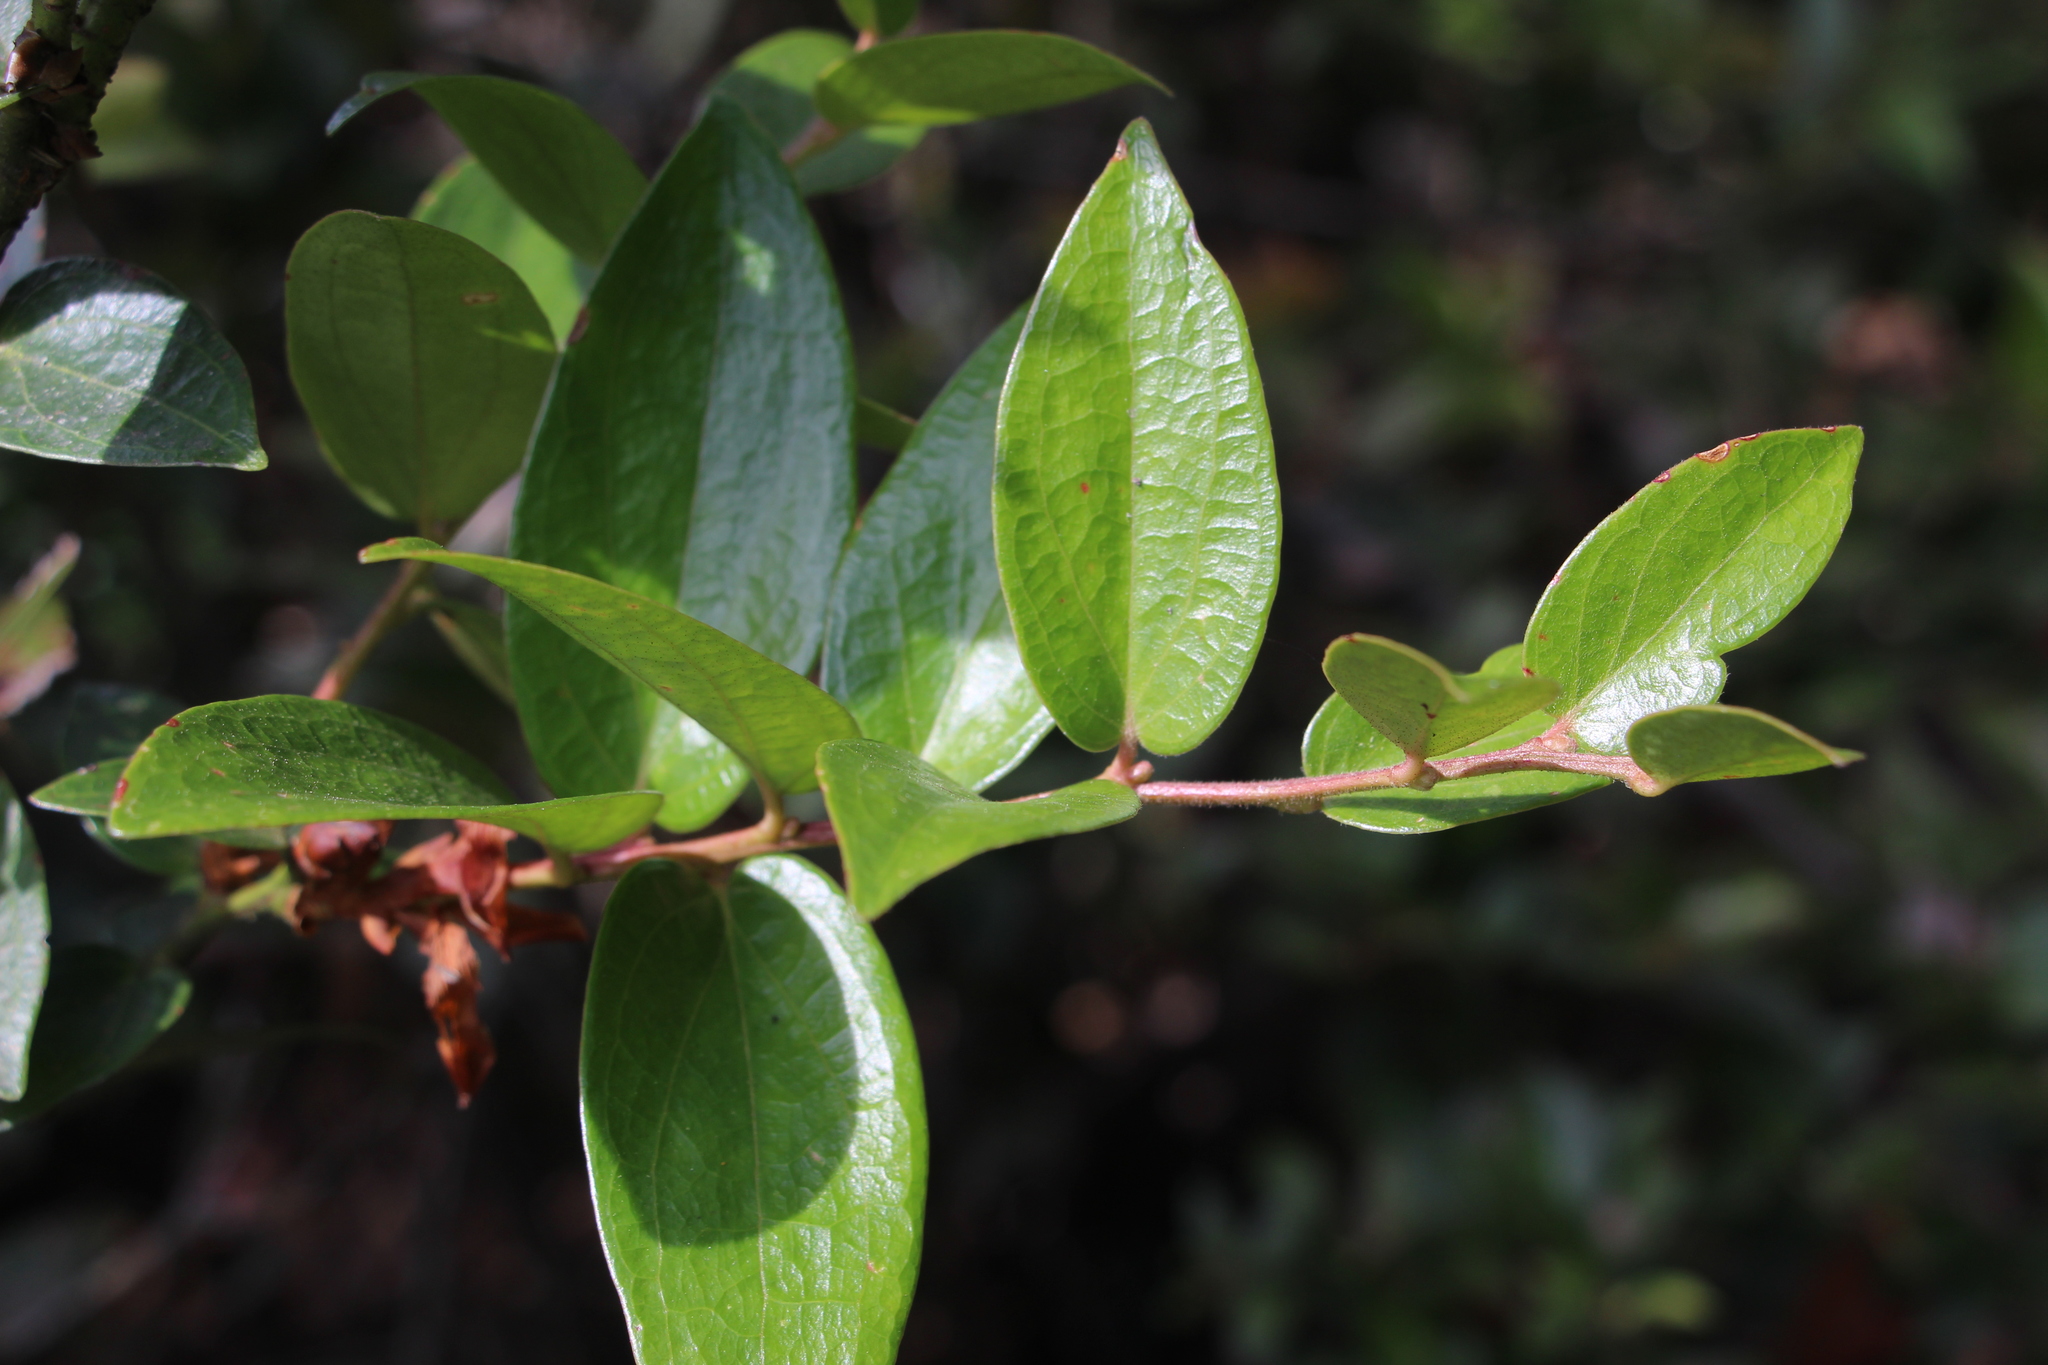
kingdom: Plantae
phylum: Tracheophyta
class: Magnoliopsida
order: Ericales
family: Ericaceae
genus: Cavendishia
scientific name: Cavendishia bracteata
